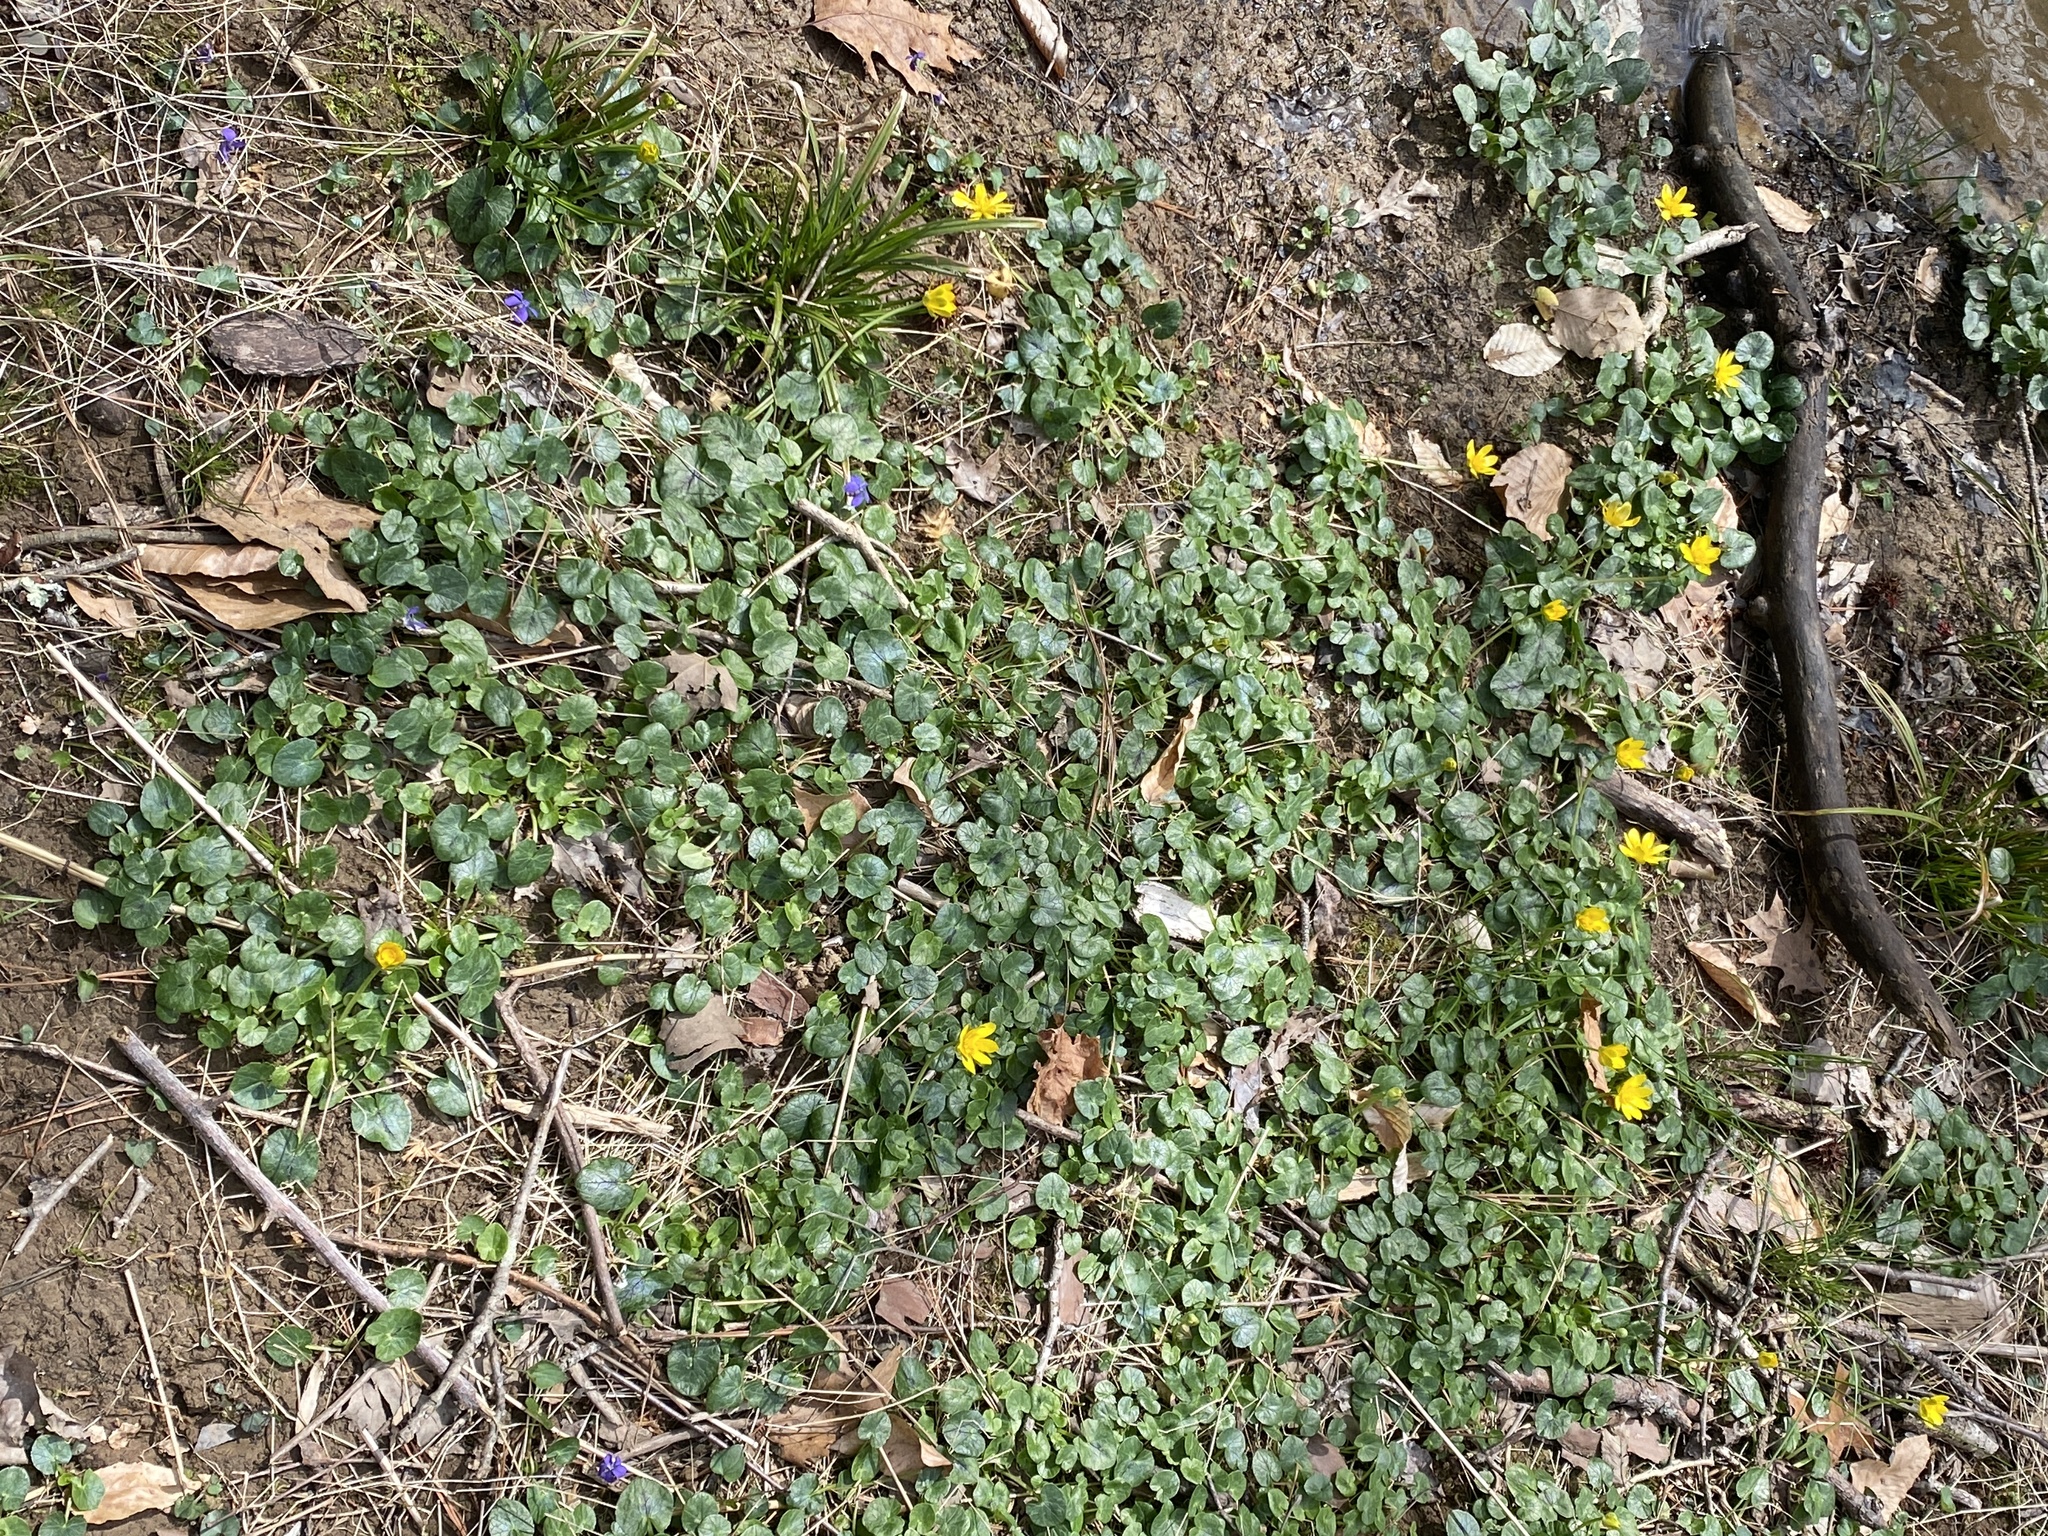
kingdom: Plantae
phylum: Tracheophyta
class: Magnoliopsida
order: Ranunculales
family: Ranunculaceae
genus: Ficaria
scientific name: Ficaria verna
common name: Lesser celandine
